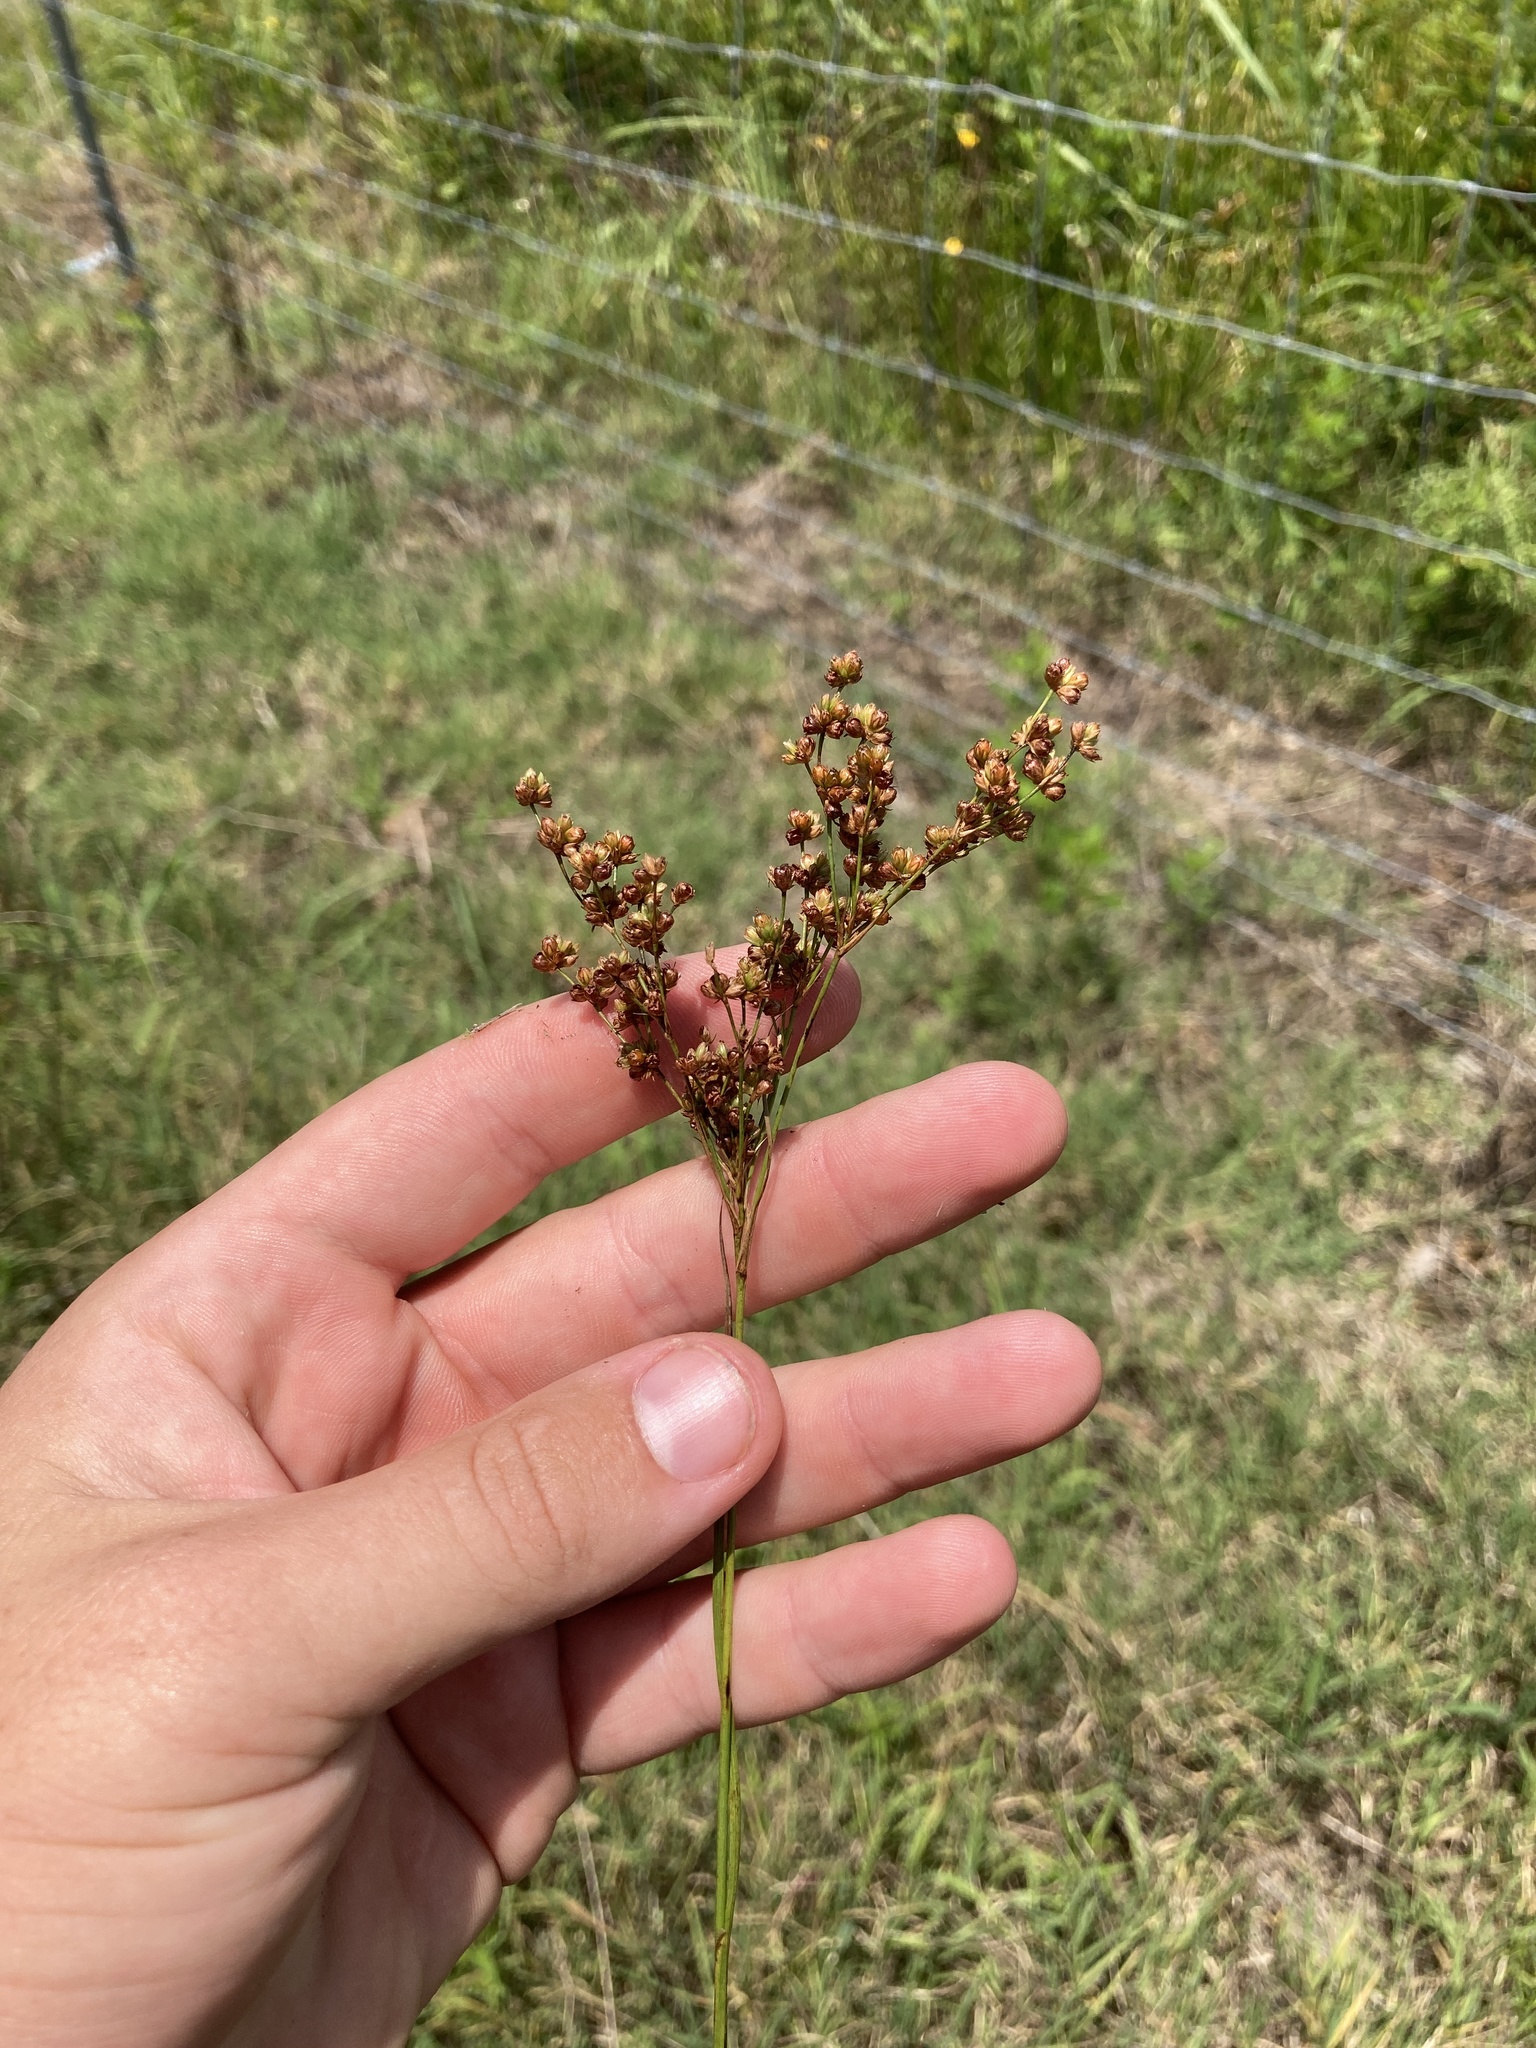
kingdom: Plantae
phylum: Tracheophyta
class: Liliopsida
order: Poales
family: Juncaceae
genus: Juncus
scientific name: Juncus marginatus
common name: Grass-leaf rush
